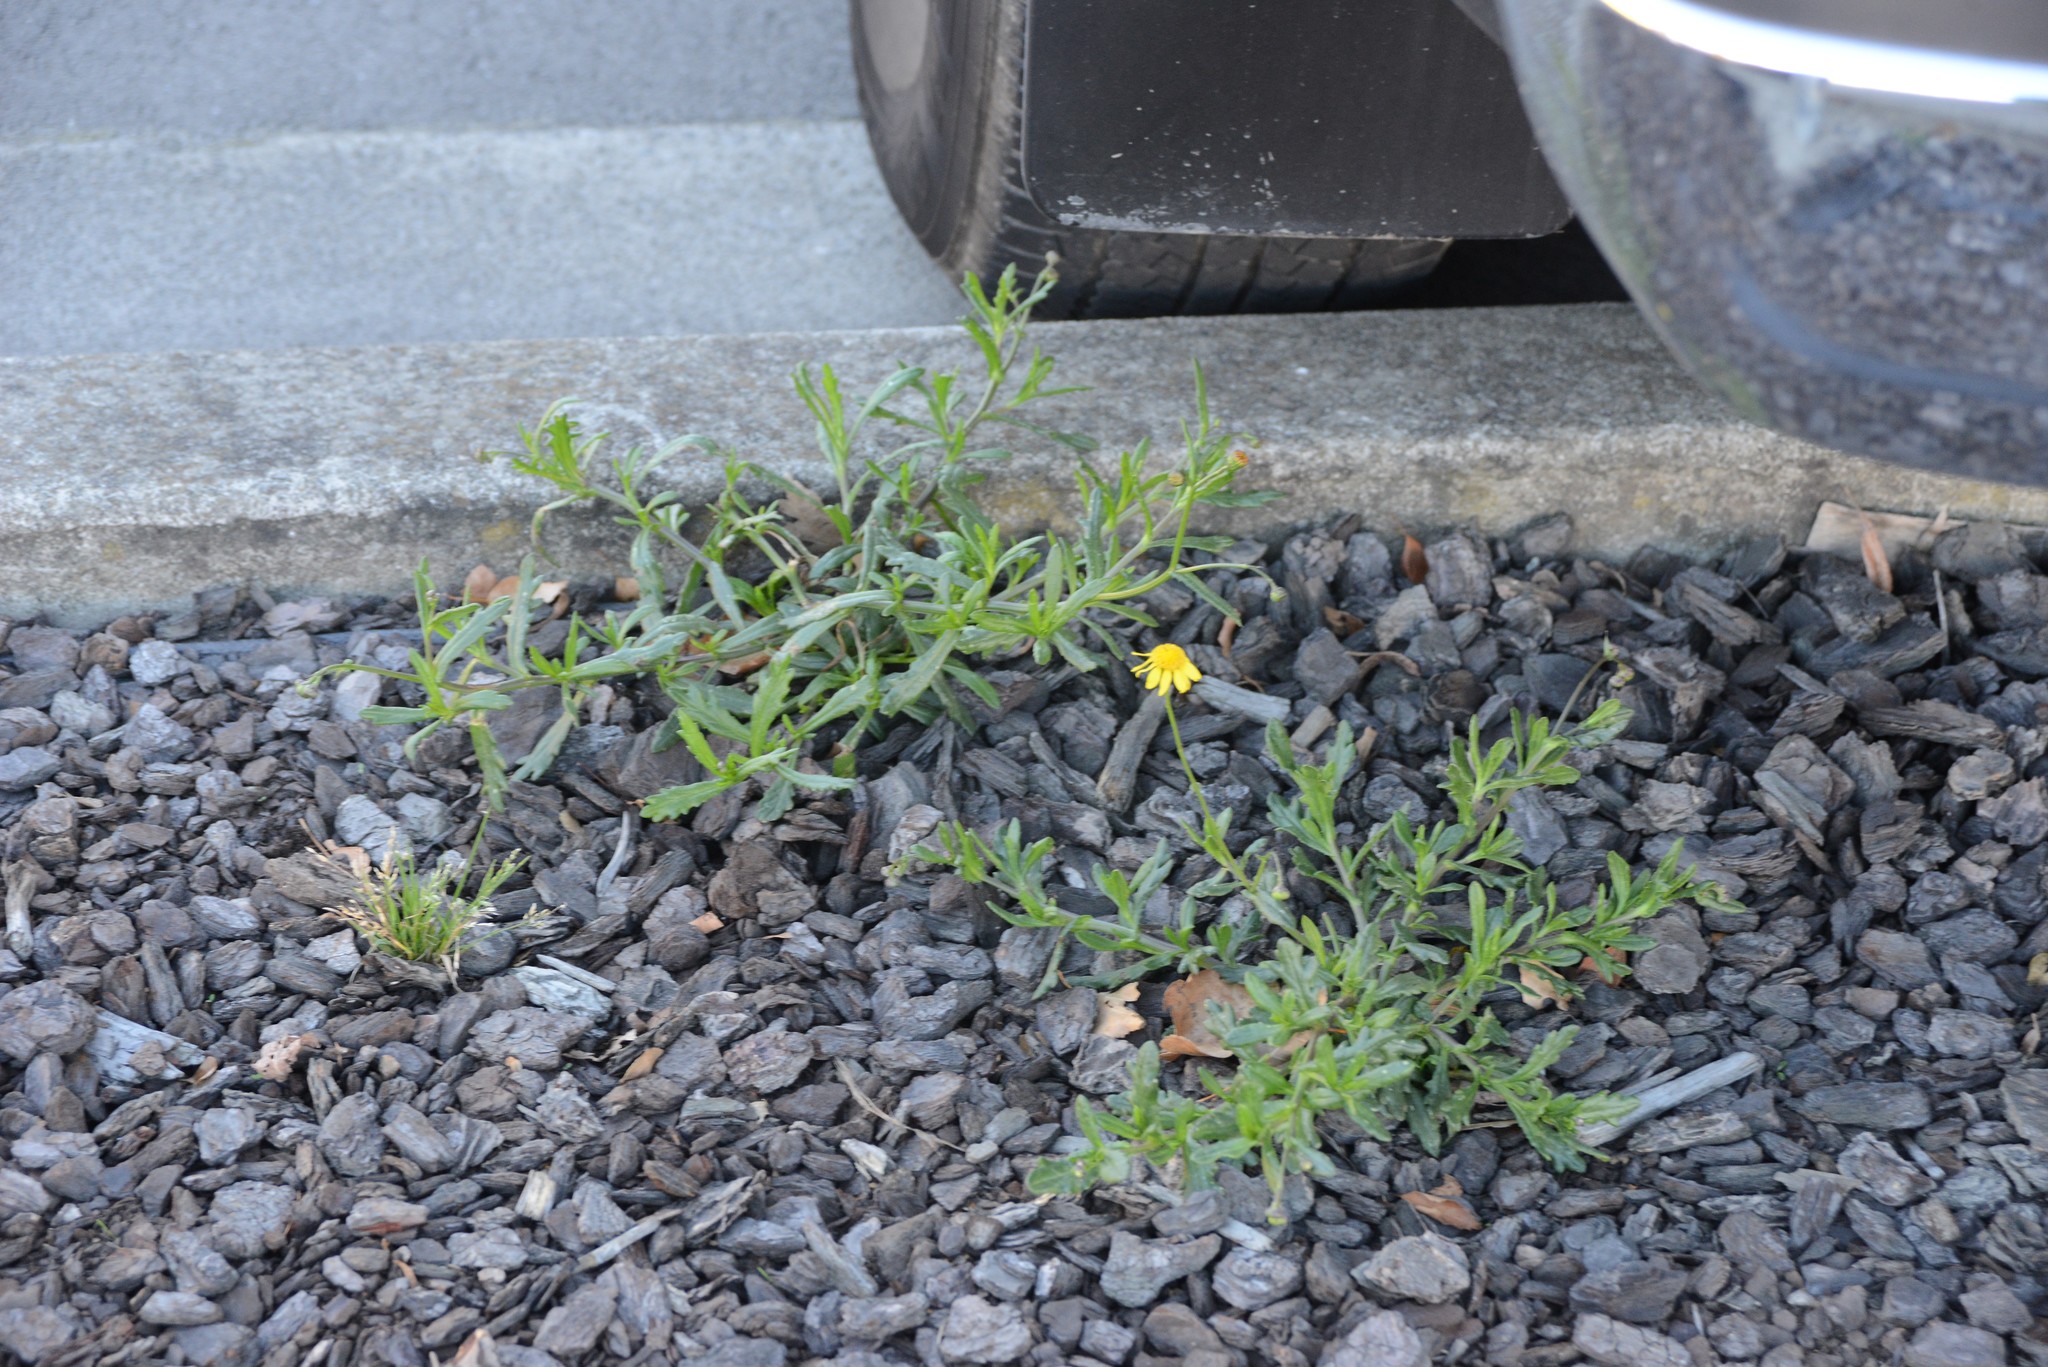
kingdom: Plantae
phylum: Tracheophyta
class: Magnoliopsida
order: Asterales
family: Asteraceae
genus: Senecio
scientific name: Senecio skirrhodon
